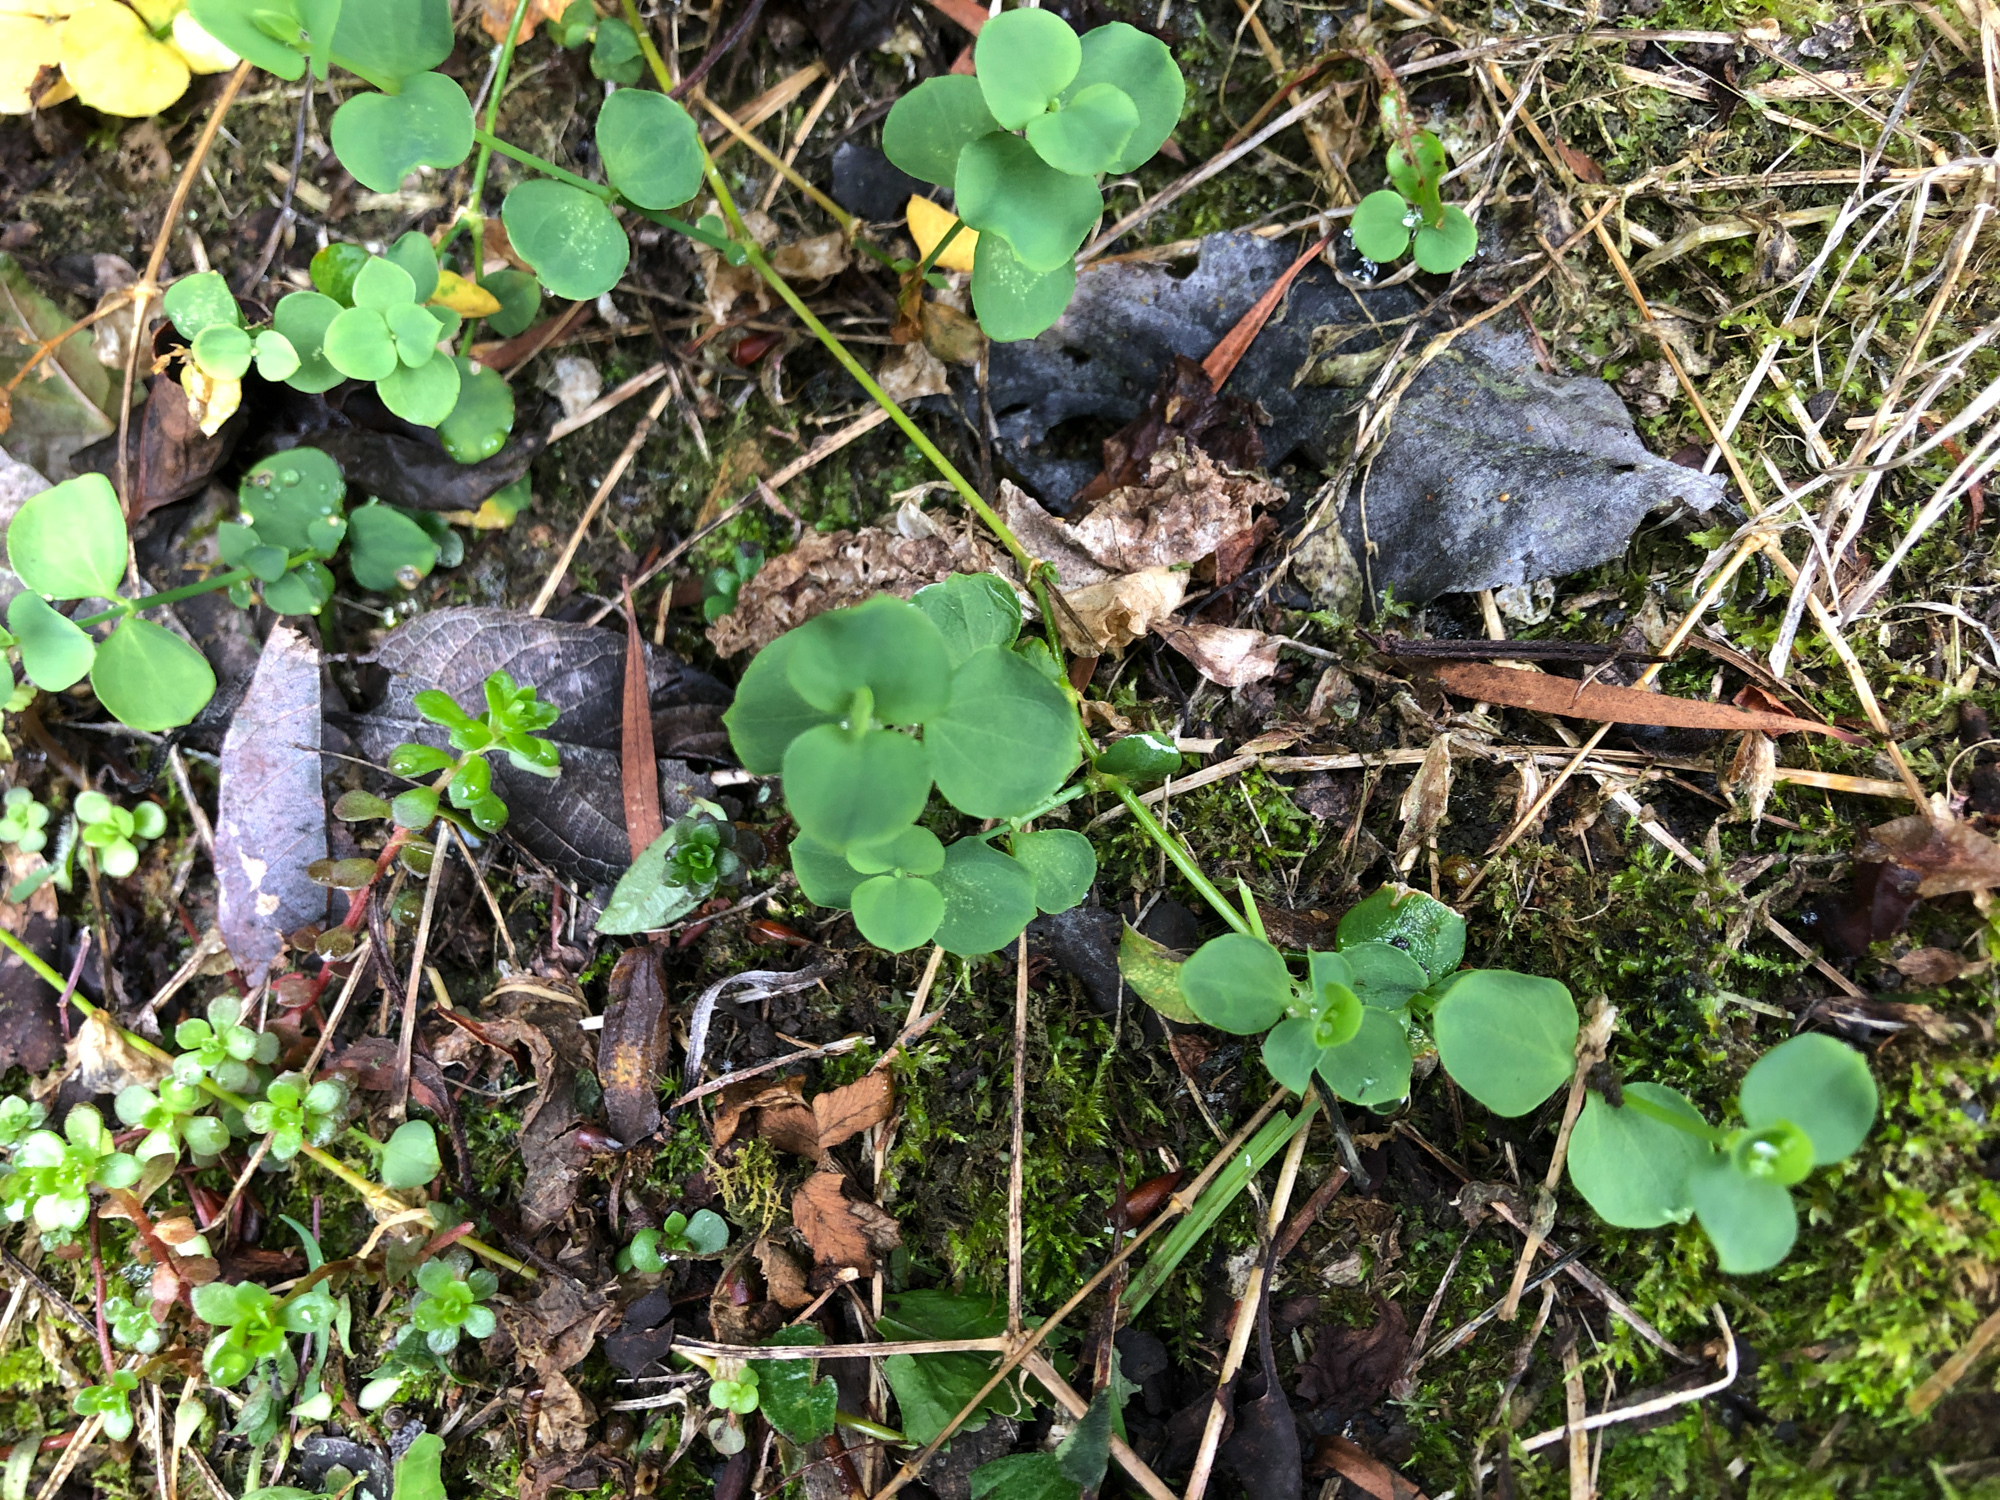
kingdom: Plantae
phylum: Tracheophyta
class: Magnoliopsida
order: Caryophyllales
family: Caryophyllaceae
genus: Drymaria
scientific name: Drymaria cordata
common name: Whitesnow
